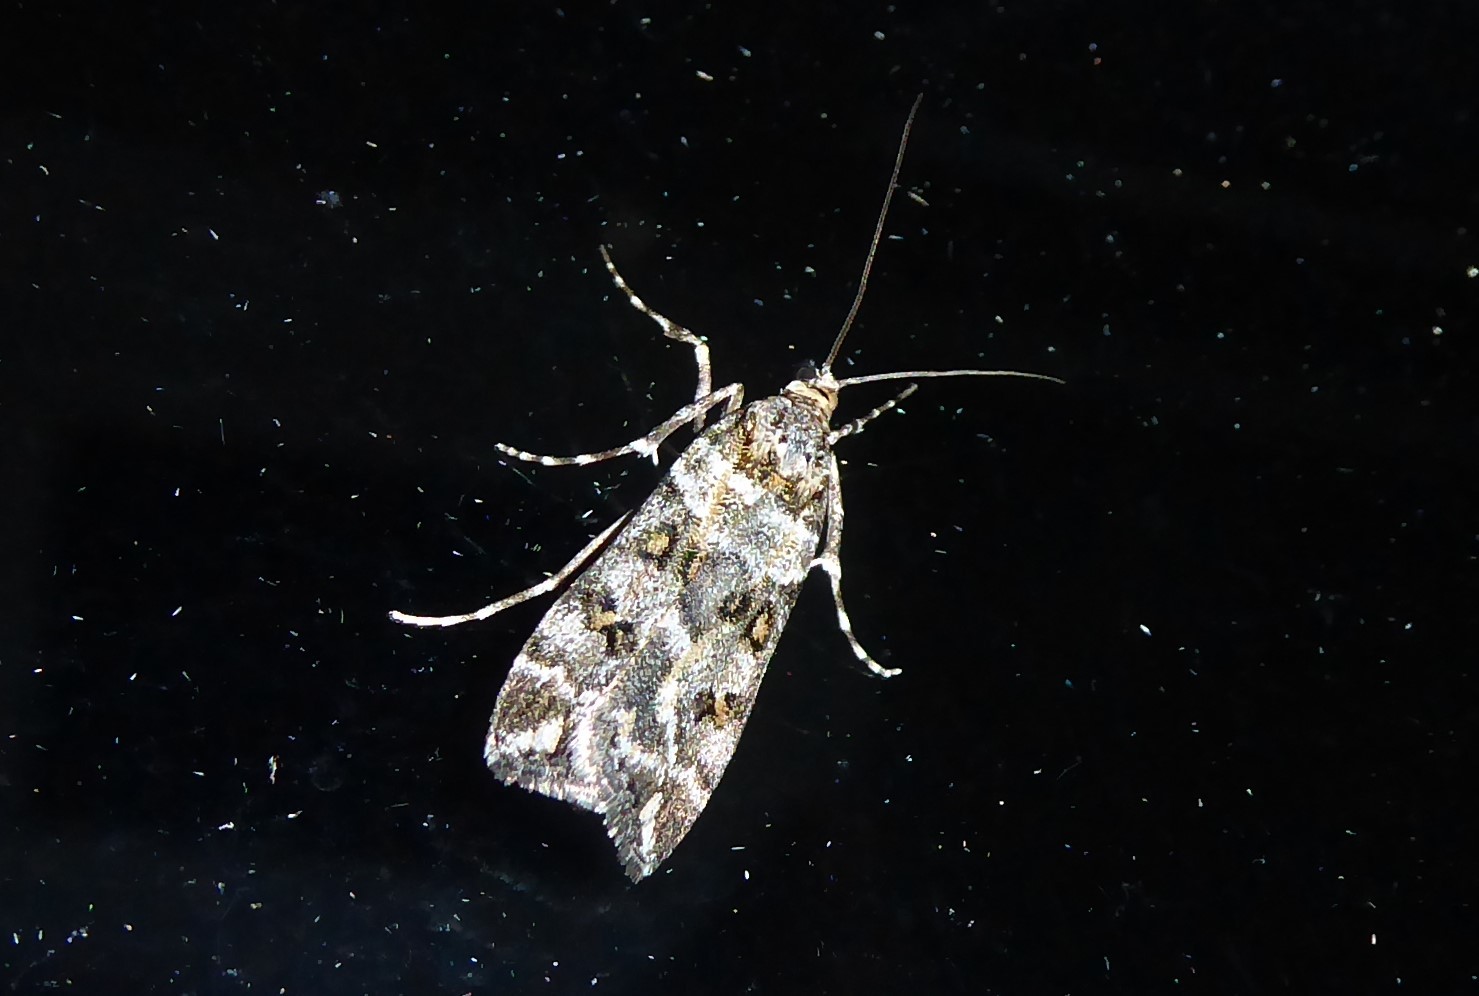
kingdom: Animalia
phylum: Arthropoda
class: Insecta
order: Lepidoptera
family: Crambidae
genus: Eudonia
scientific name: Eudonia diphtheralis
